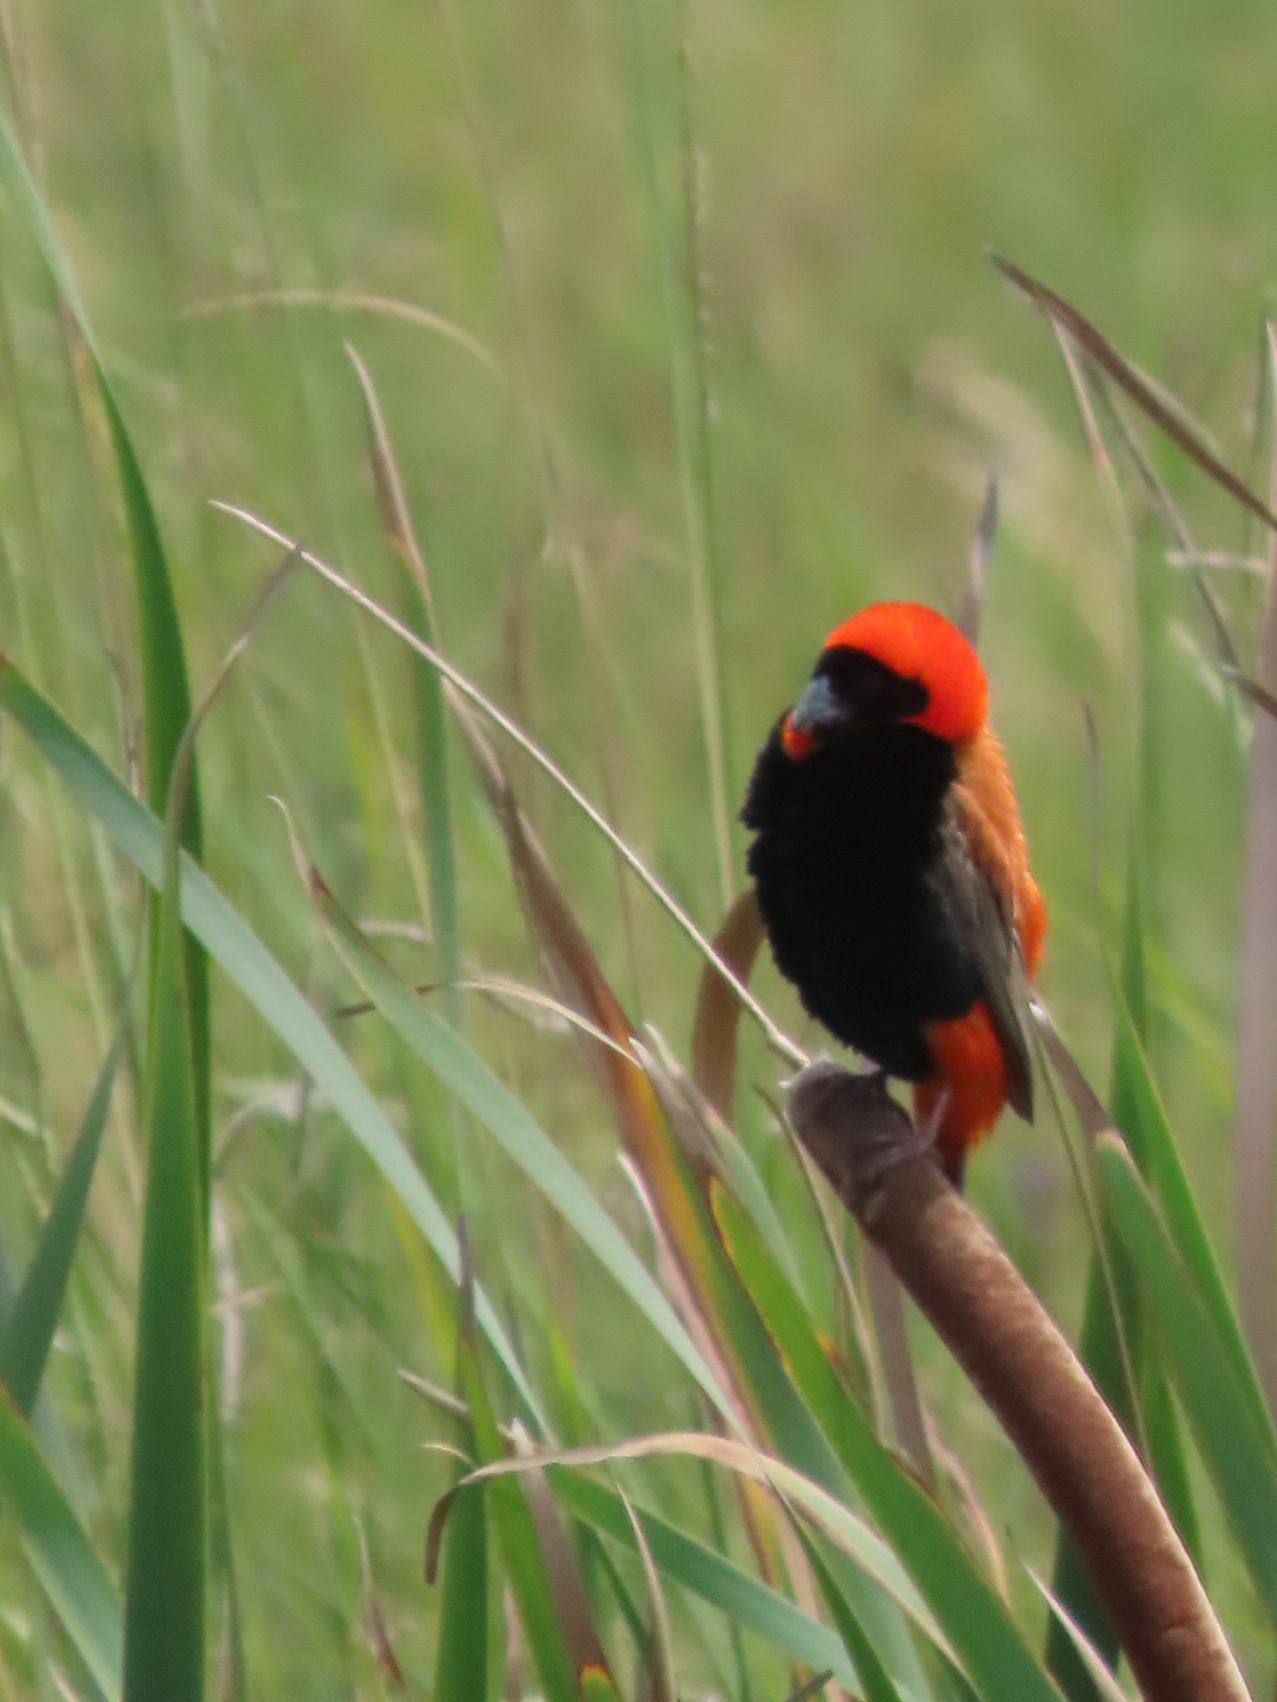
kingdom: Animalia
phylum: Chordata
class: Aves
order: Passeriformes
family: Ploceidae
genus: Euplectes
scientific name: Euplectes orix
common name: Southern red bishop
